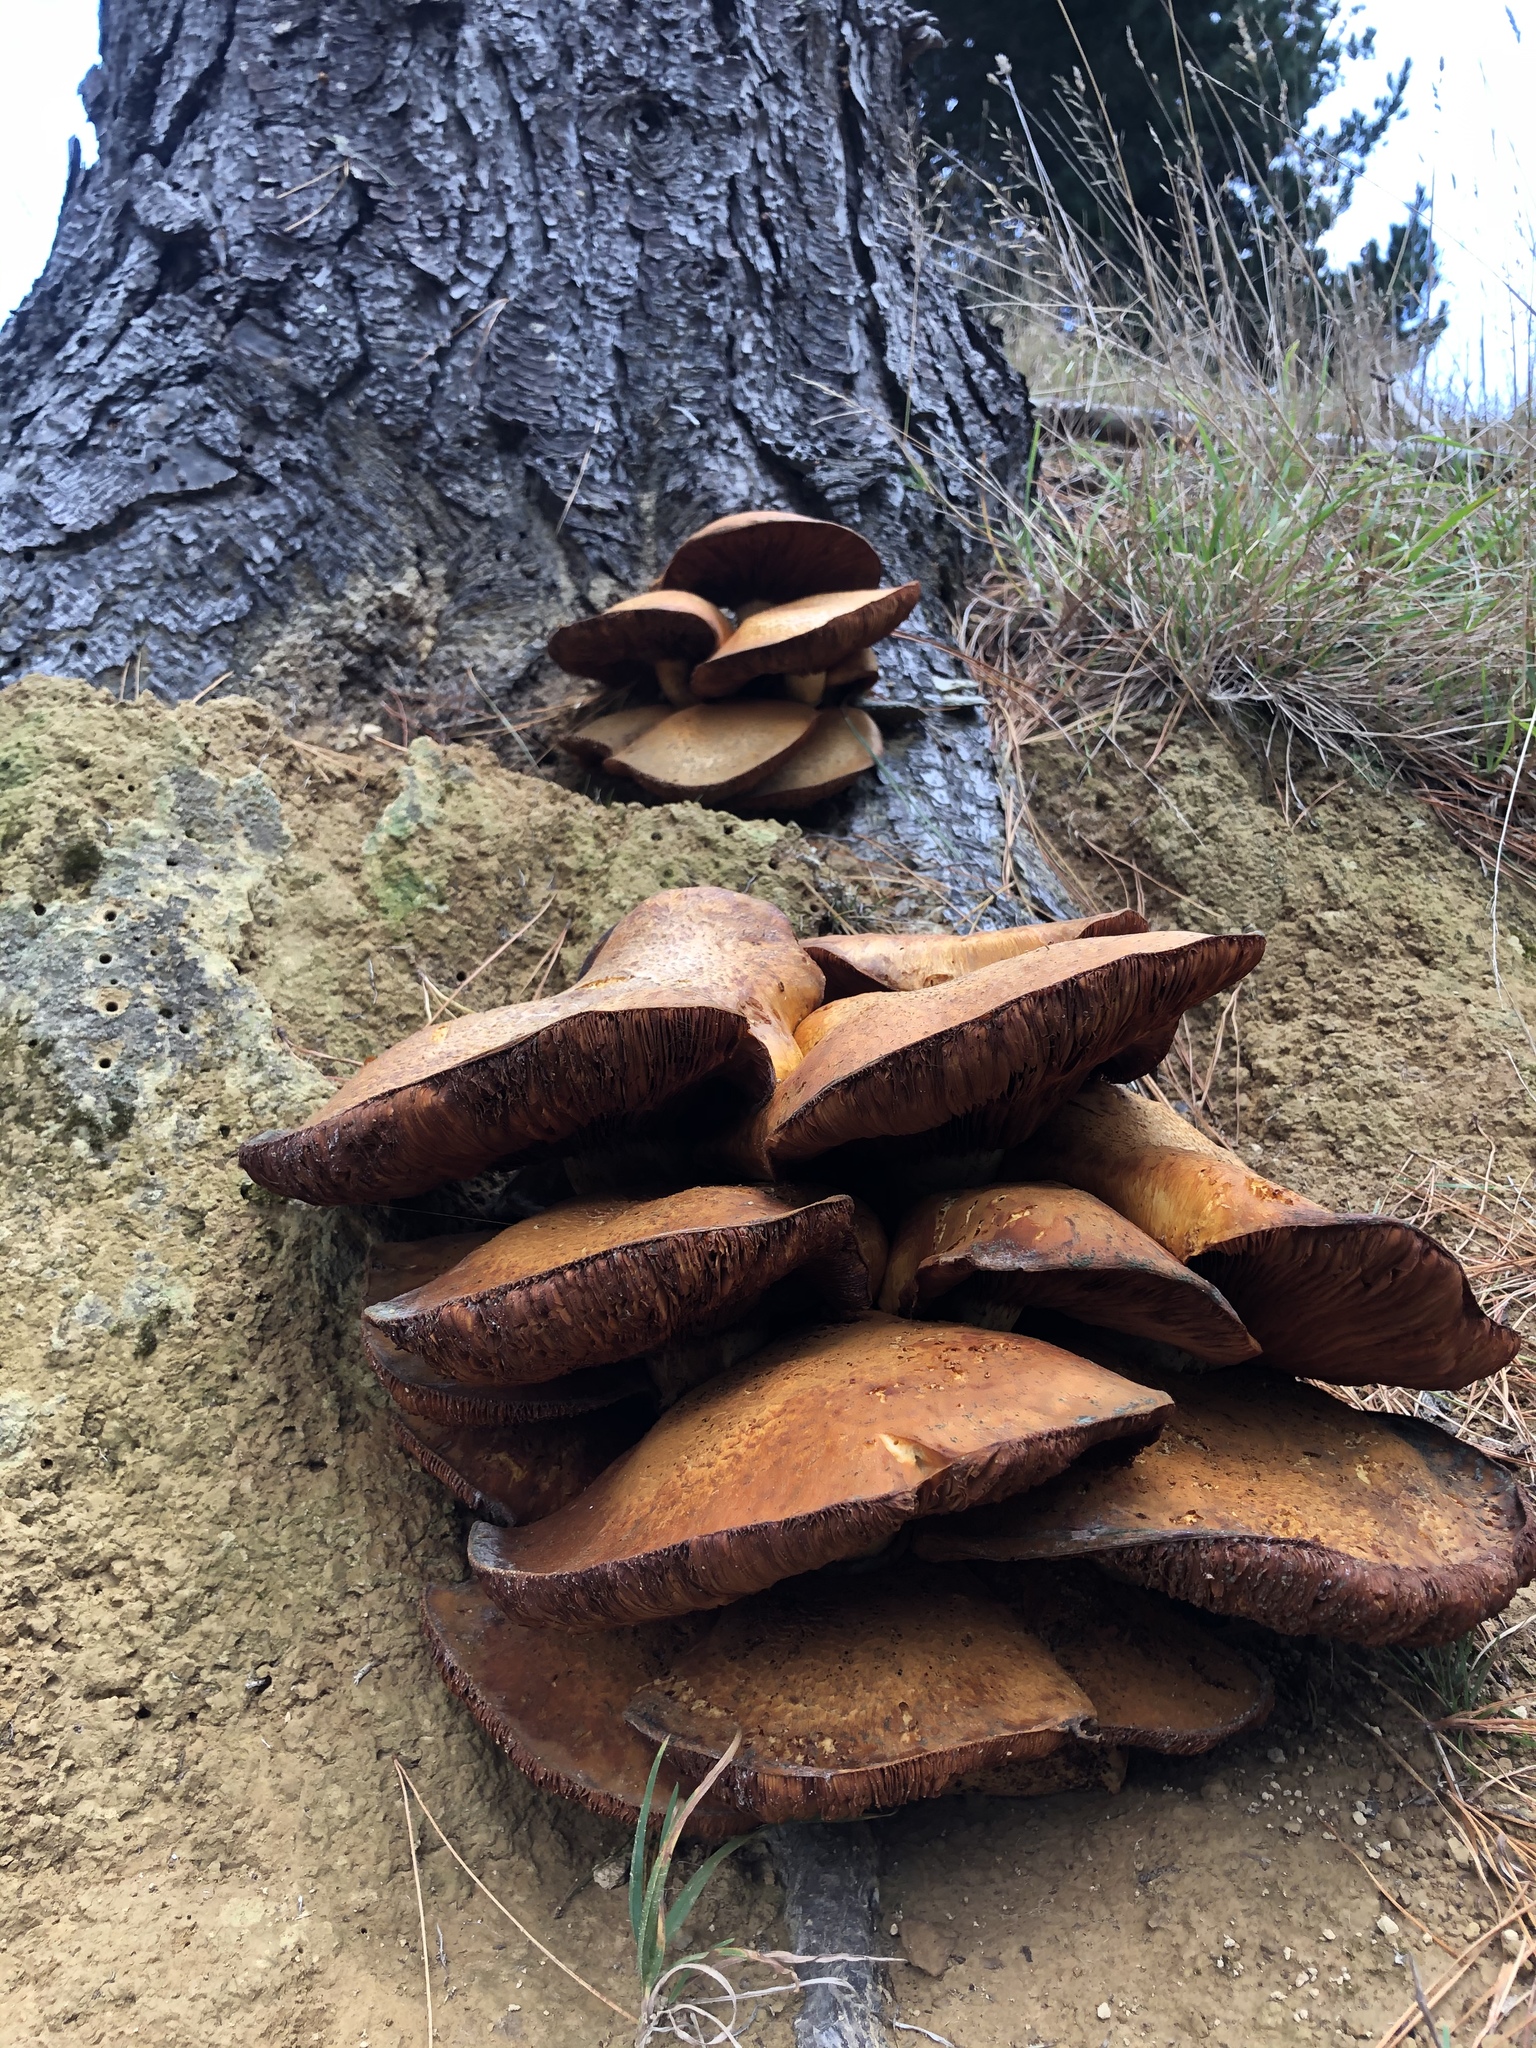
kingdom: Fungi
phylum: Basidiomycota
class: Agaricomycetes
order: Agaricales
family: Hymenogastraceae
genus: Gymnopilus
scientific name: Gymnopilus junonius
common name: Spectacular rustgill
